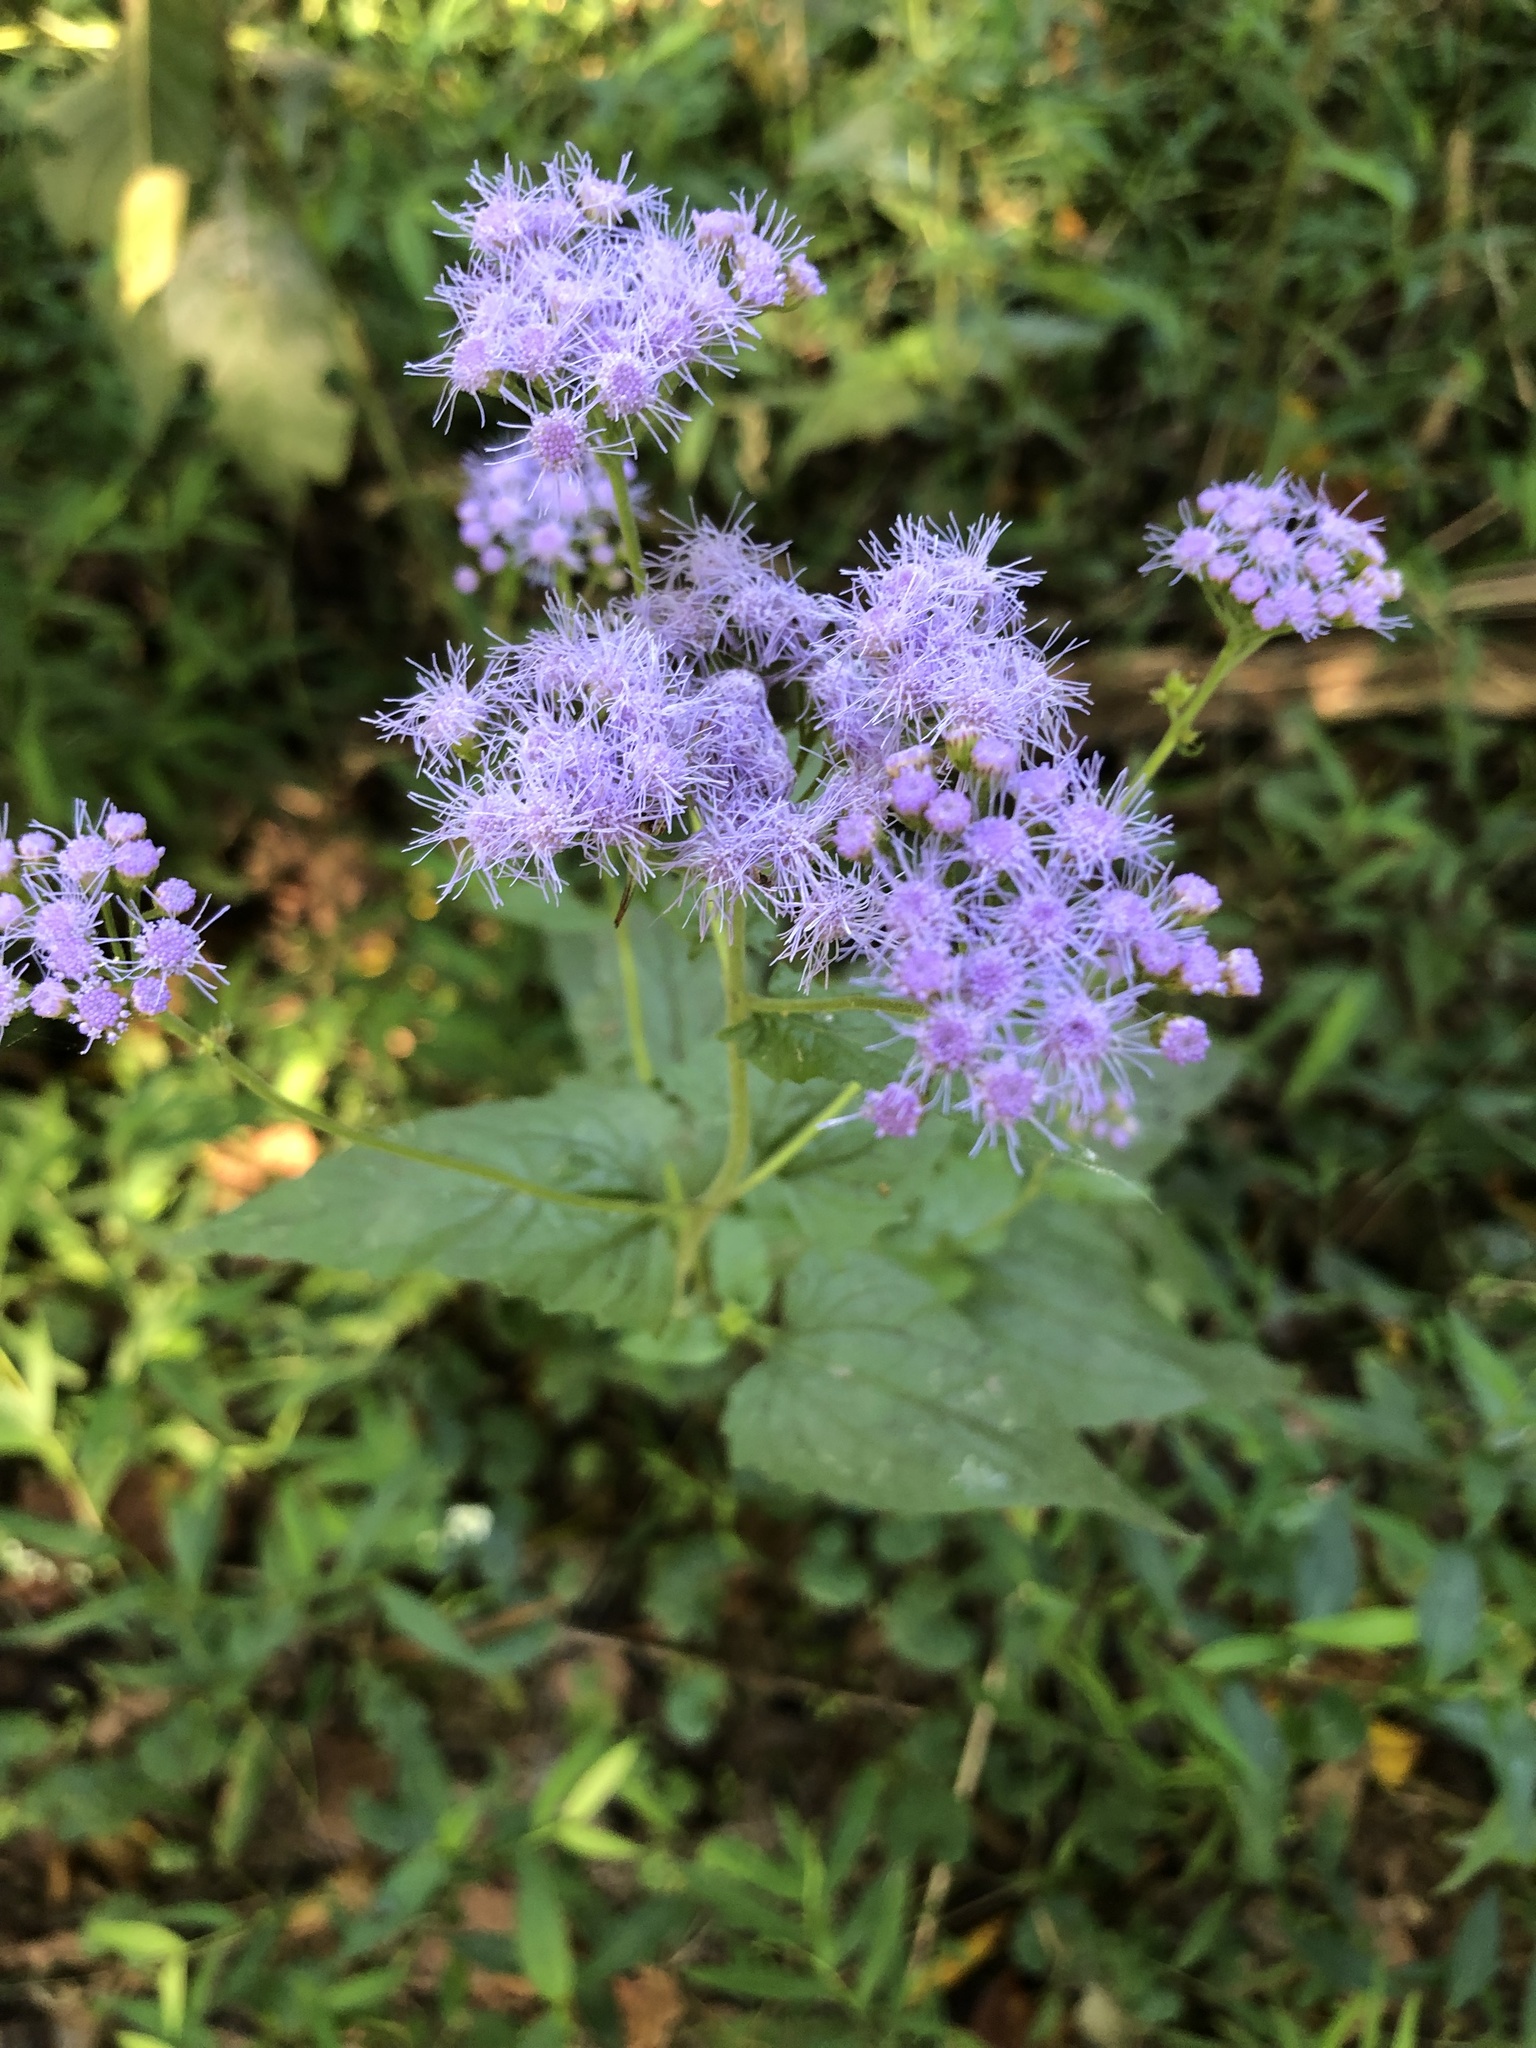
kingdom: Plantae
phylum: Tracheophyta
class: Magnoliopsida
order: Asterales
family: Asteraceae
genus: Conoclinium
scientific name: Conoclinium coelestinum
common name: Blue mistflower
